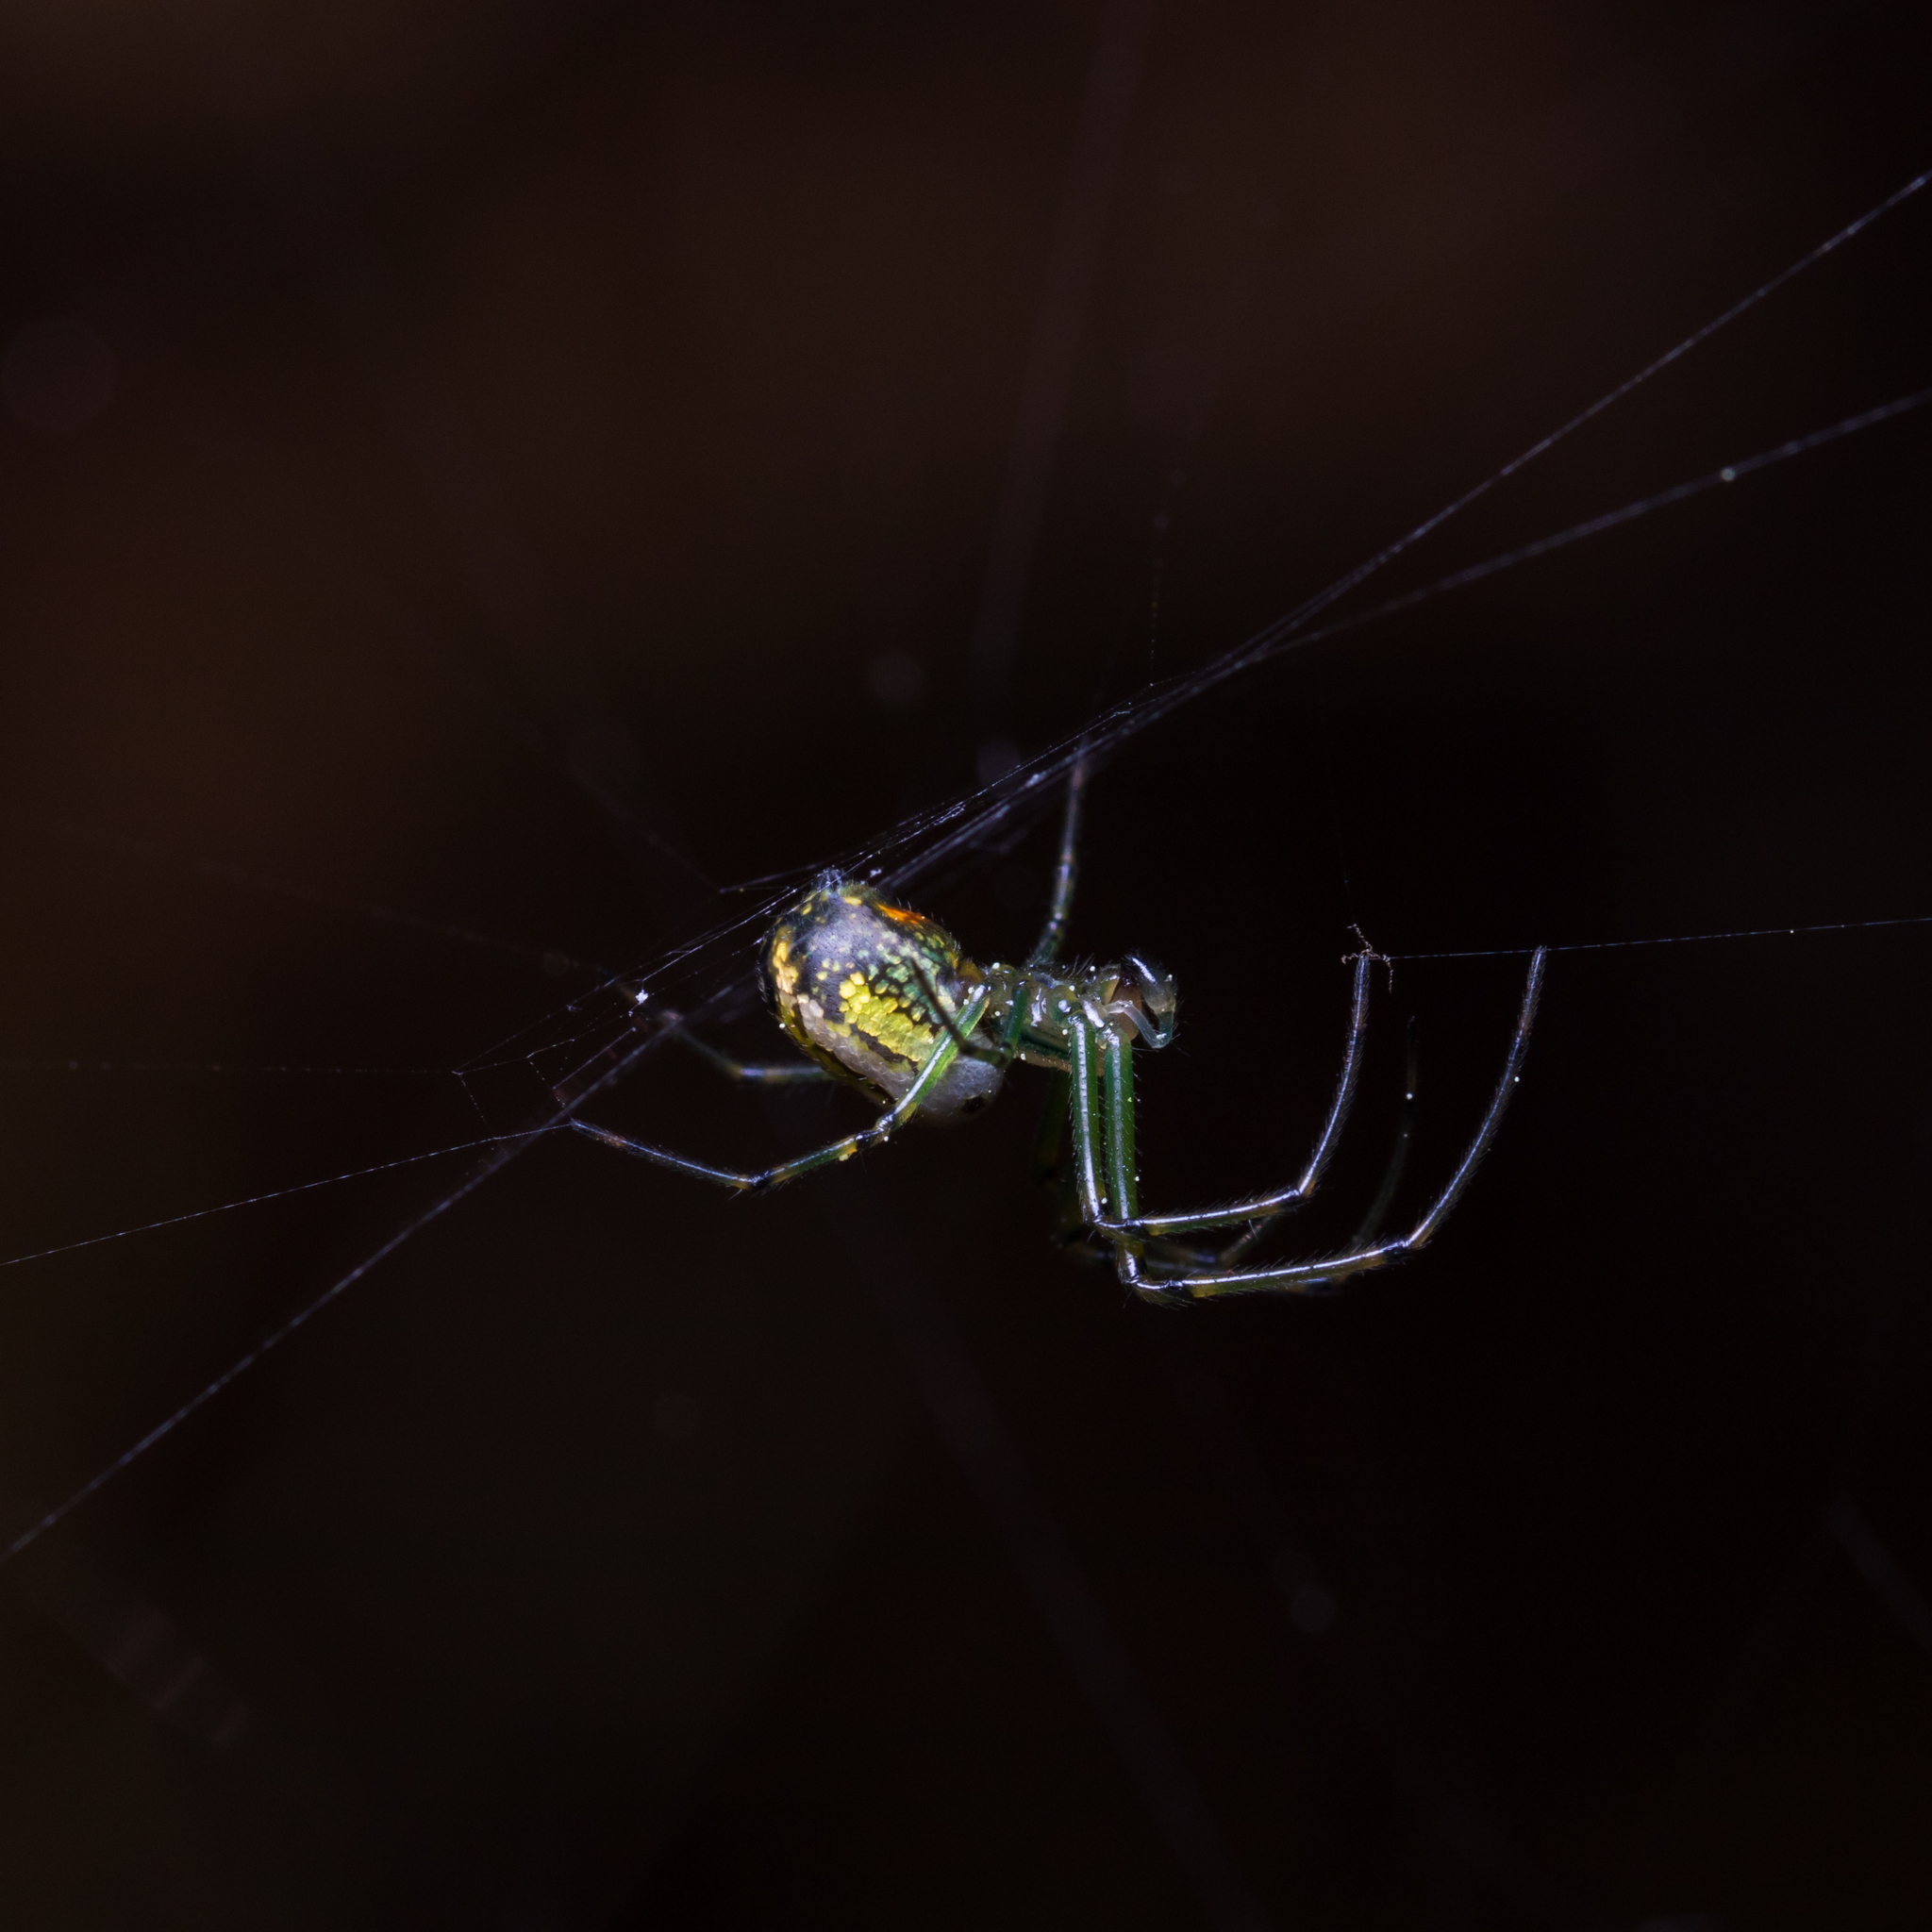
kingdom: Animalia
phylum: Arthropoda
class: Arachnida
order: Araneae
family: Tetragnathidae
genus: Leucauge
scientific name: Leucauge venusta
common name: Longjawed orb weavers
